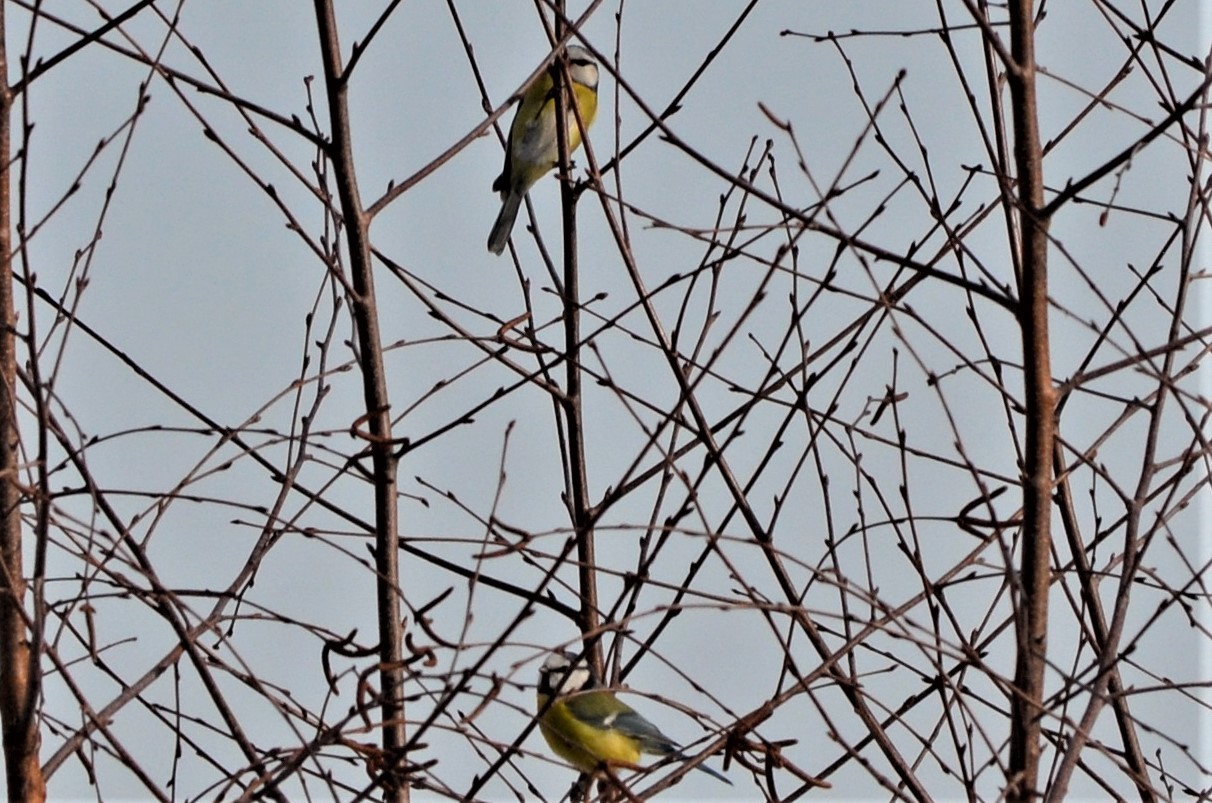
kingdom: Animalia
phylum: Chordata
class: Aves
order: Passeriformes
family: Paridae
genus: Cyanistes
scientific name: Cyanistes caeruleus
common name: Eurasian blue tit
